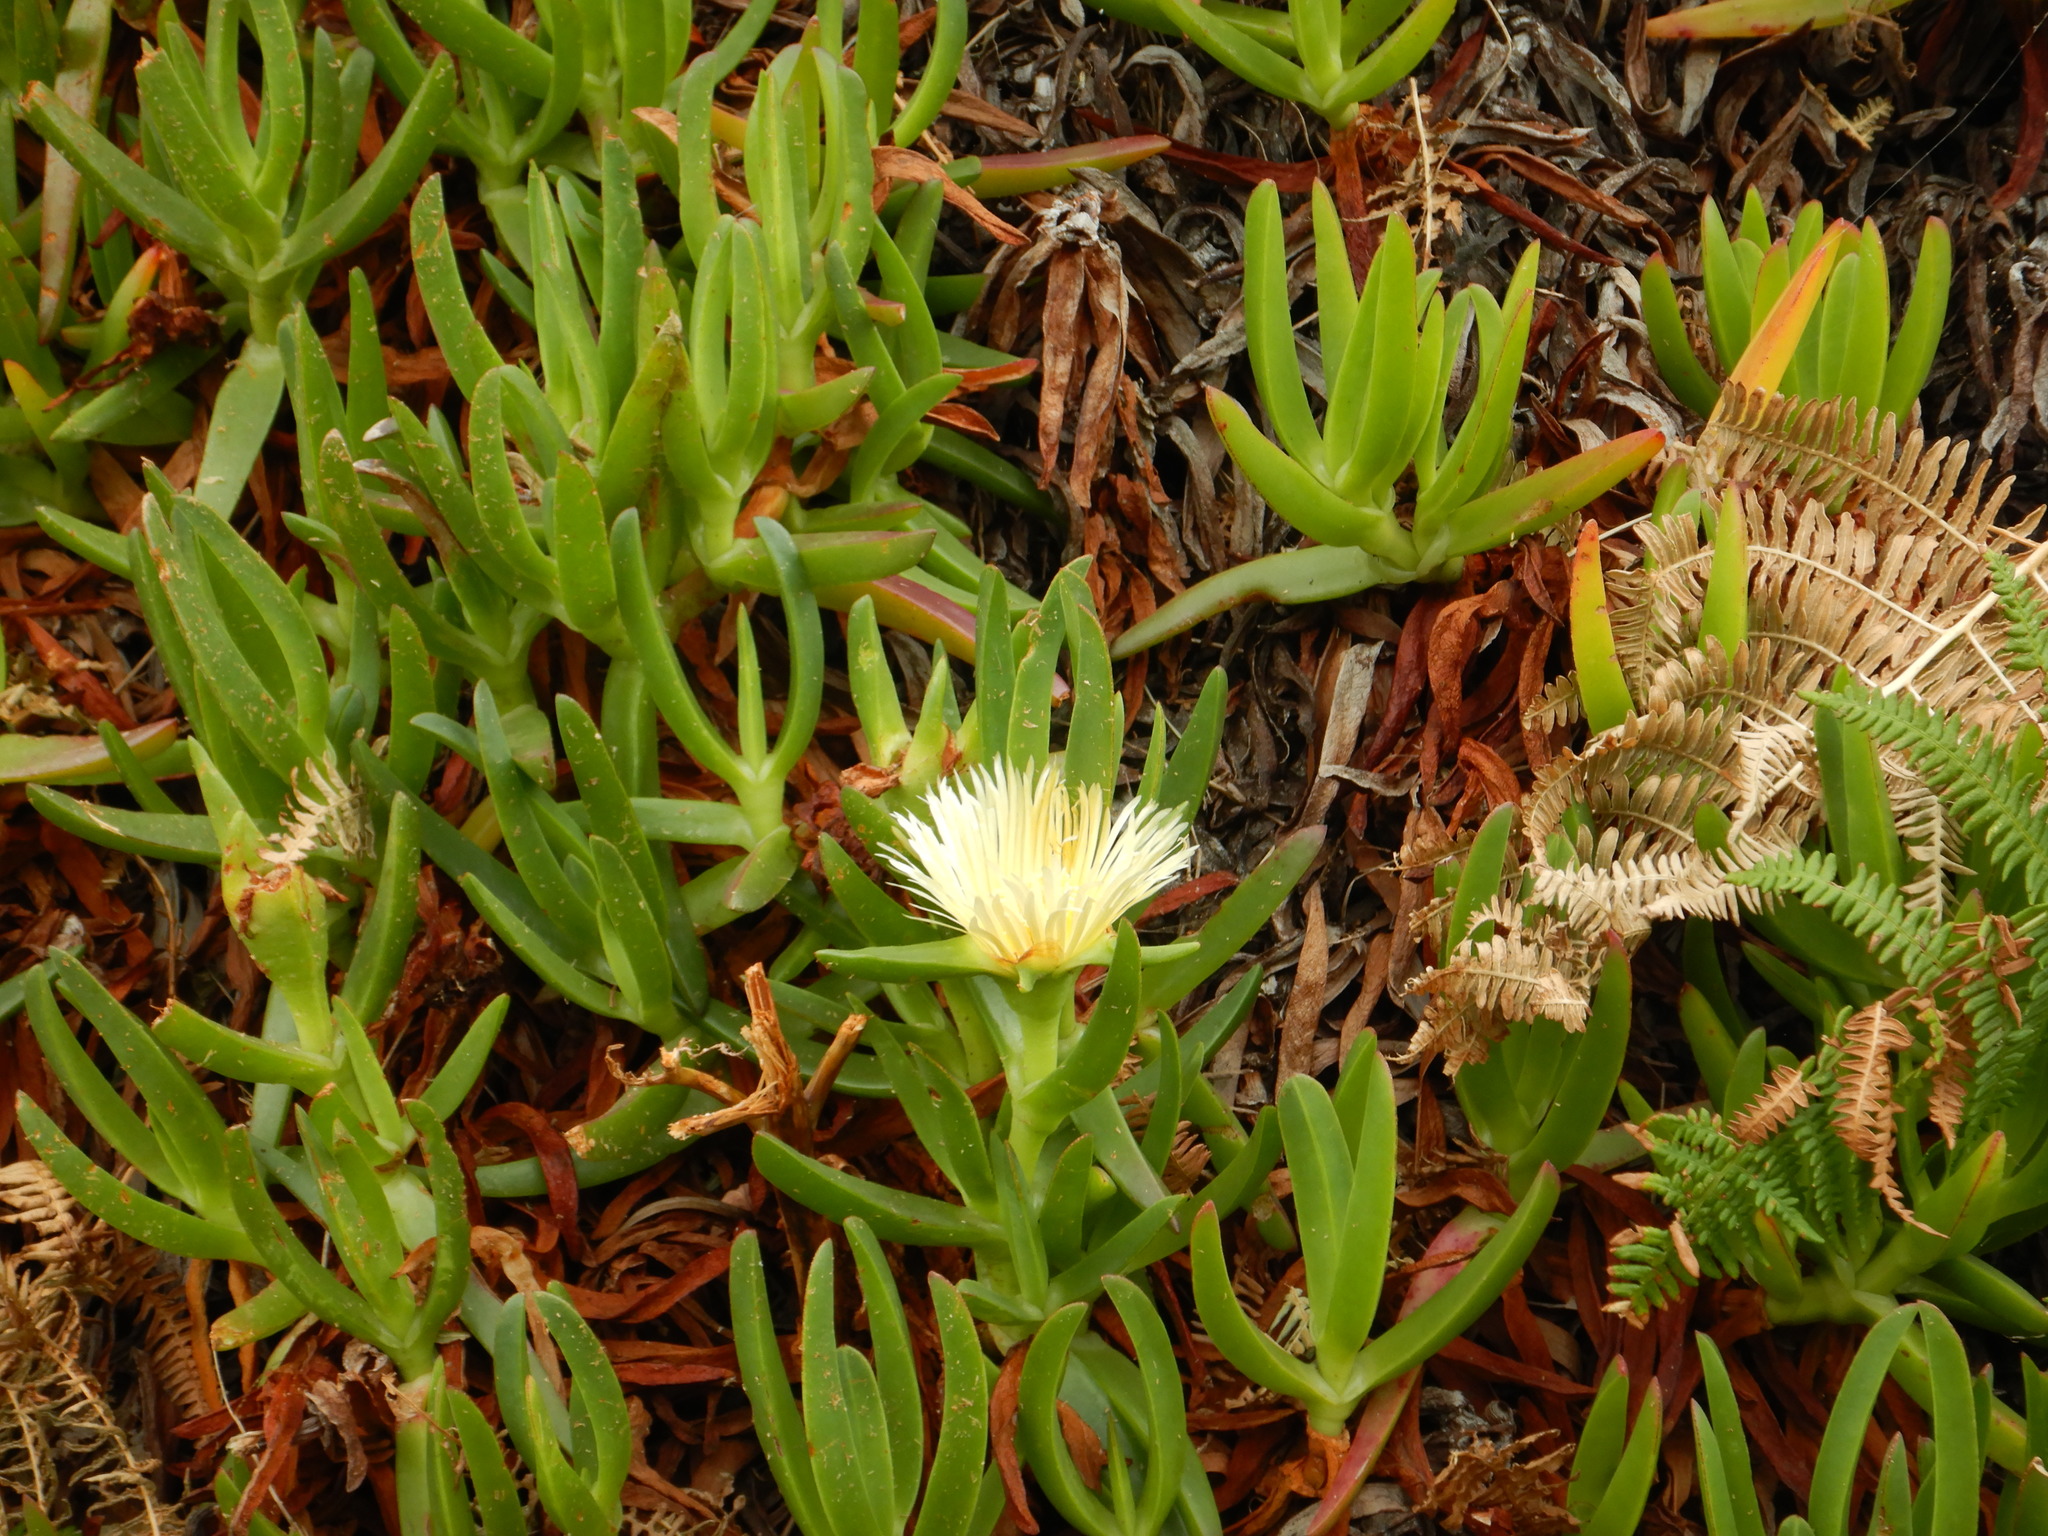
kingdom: Plantae
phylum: Tracheophyta
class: Magnoliopsida
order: Caryophyllales
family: Aizoaceae
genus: Carpobrotus
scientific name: Carpobrotus edulis
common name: Hottentot-fig
